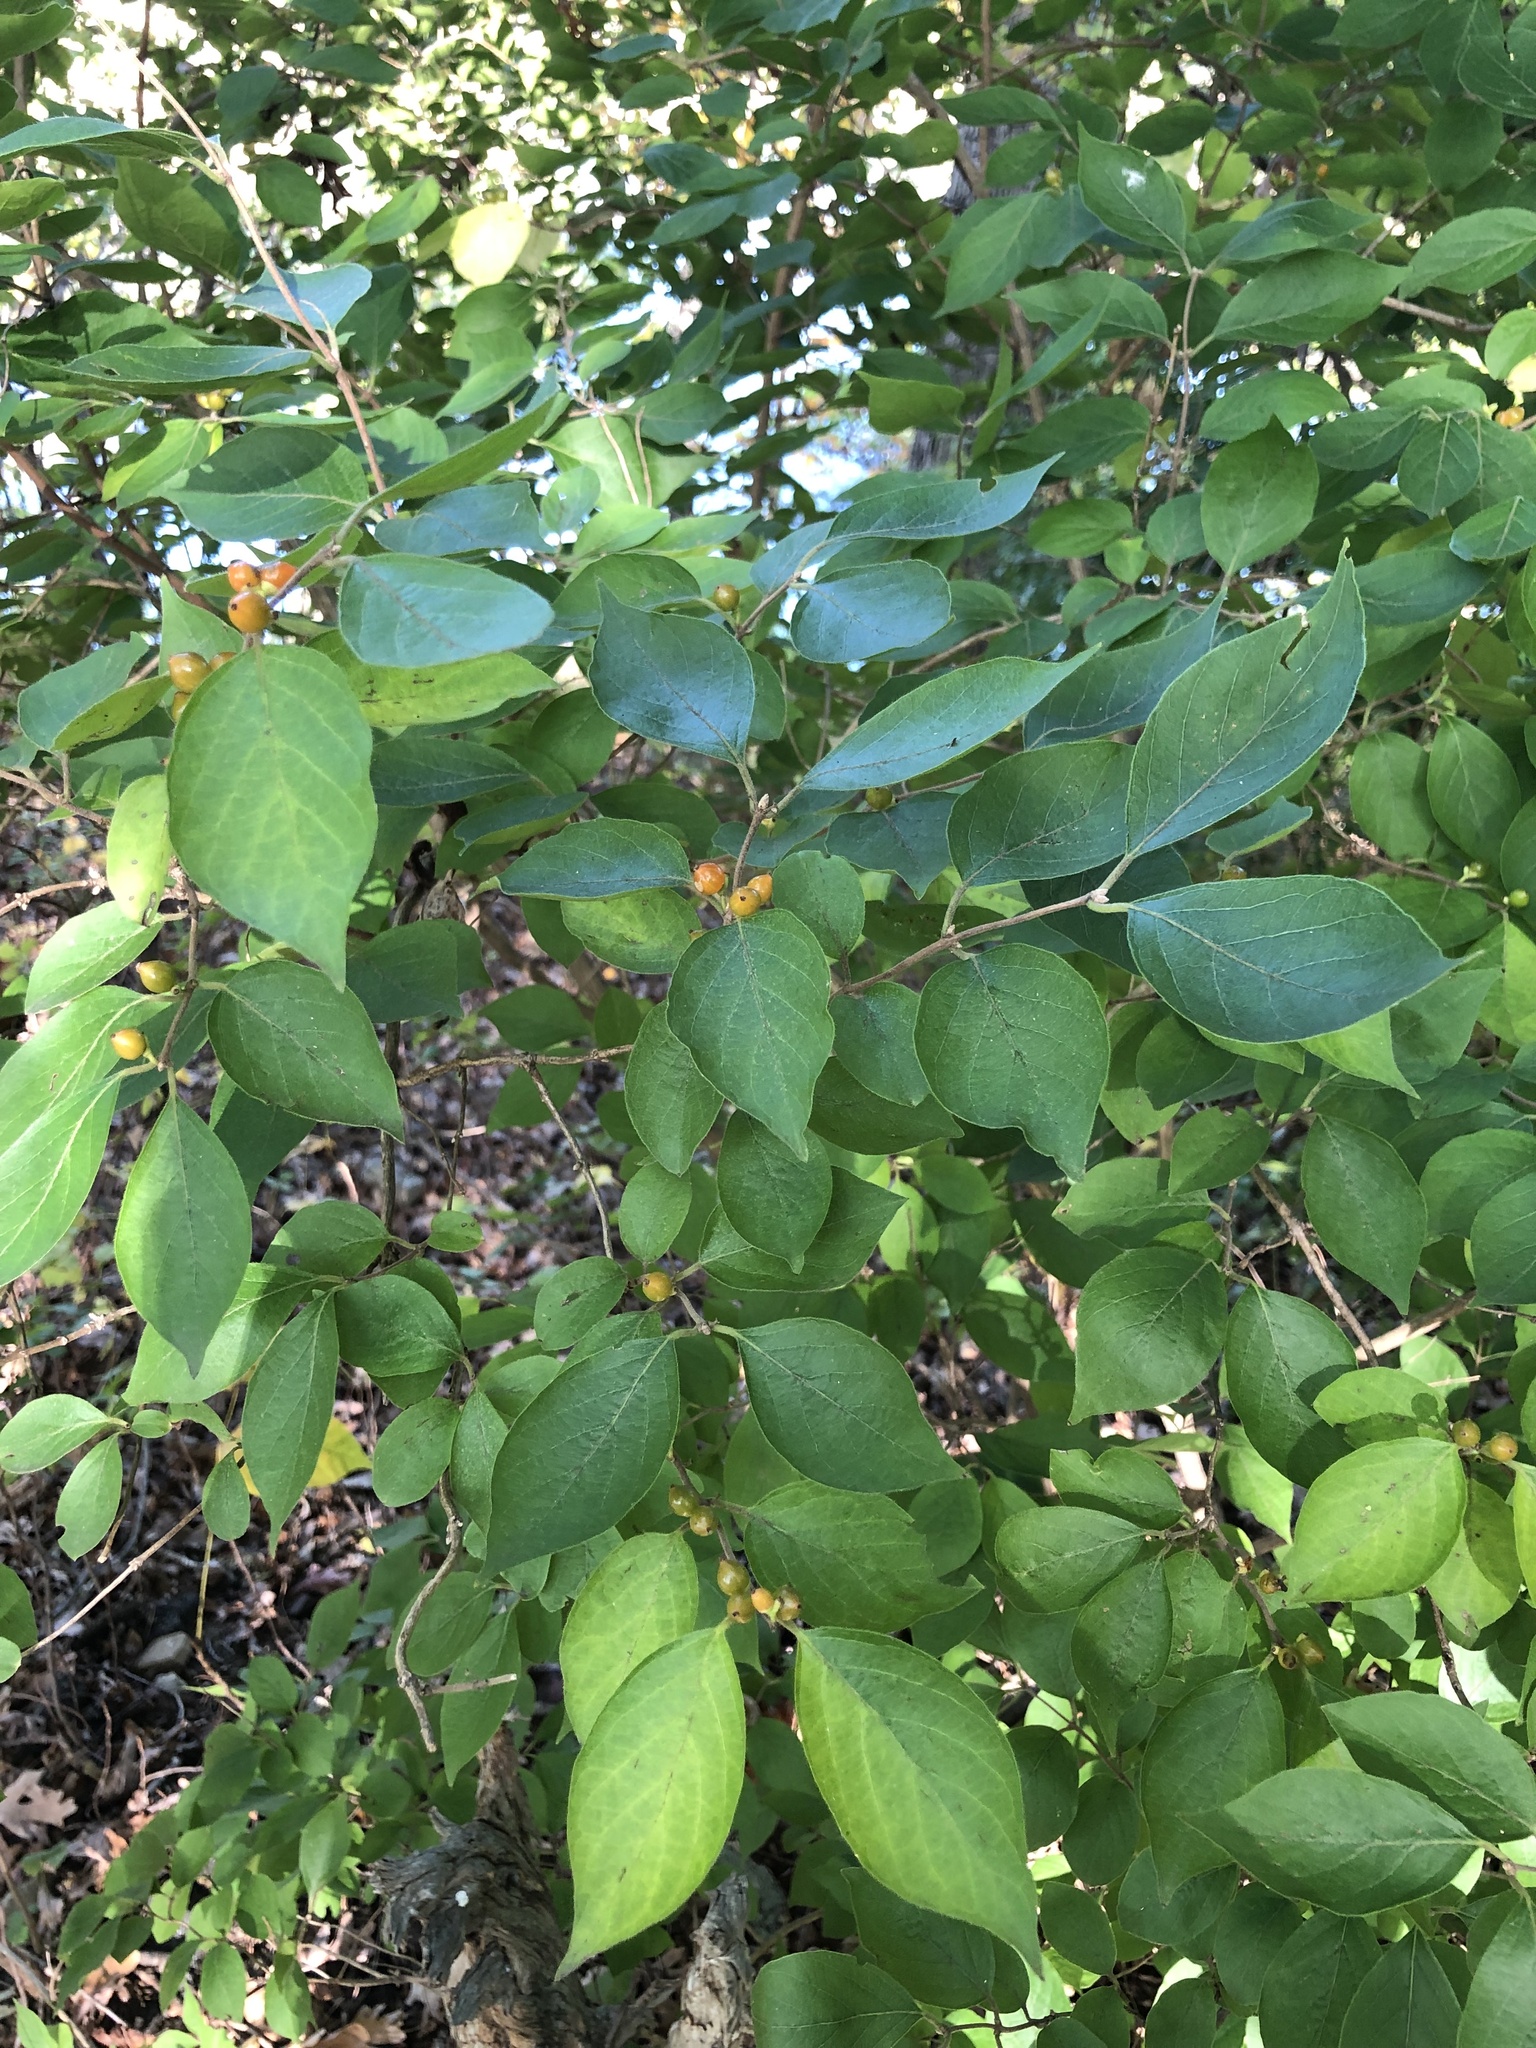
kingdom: Plantae
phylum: Tracheophyta
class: Magnoliopsida
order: Dipsacales
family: Caprifoliaceae
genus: Lonicera
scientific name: Lonicera maackii
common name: Amur honeysuckle
